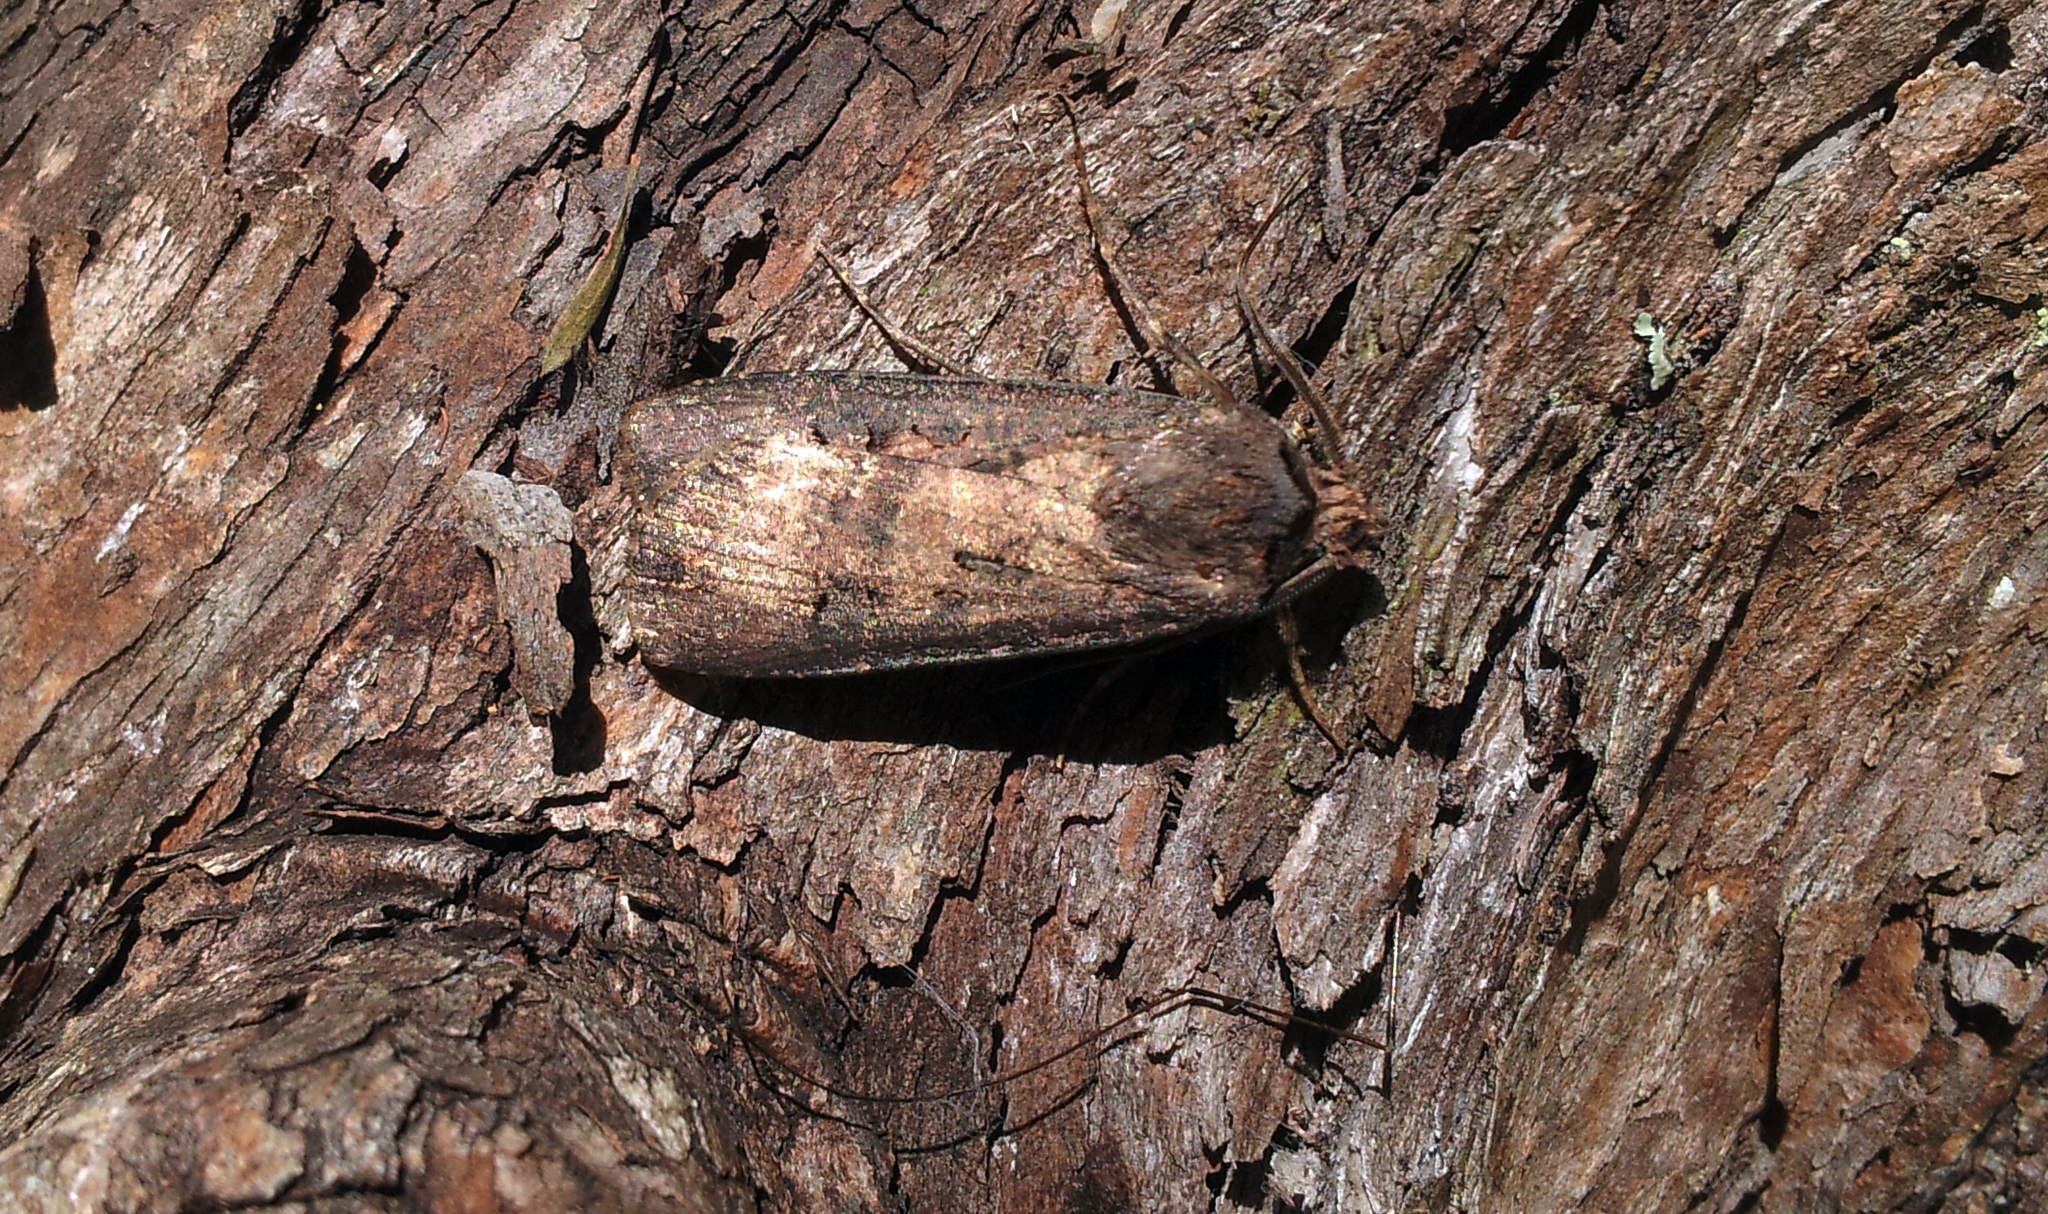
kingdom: Animalia
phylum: Arthropoda
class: Insecta
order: Lepidoptera
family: Noctuidae
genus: Agrotis
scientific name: Agrotis ipsilon
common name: Dark sword-grass
